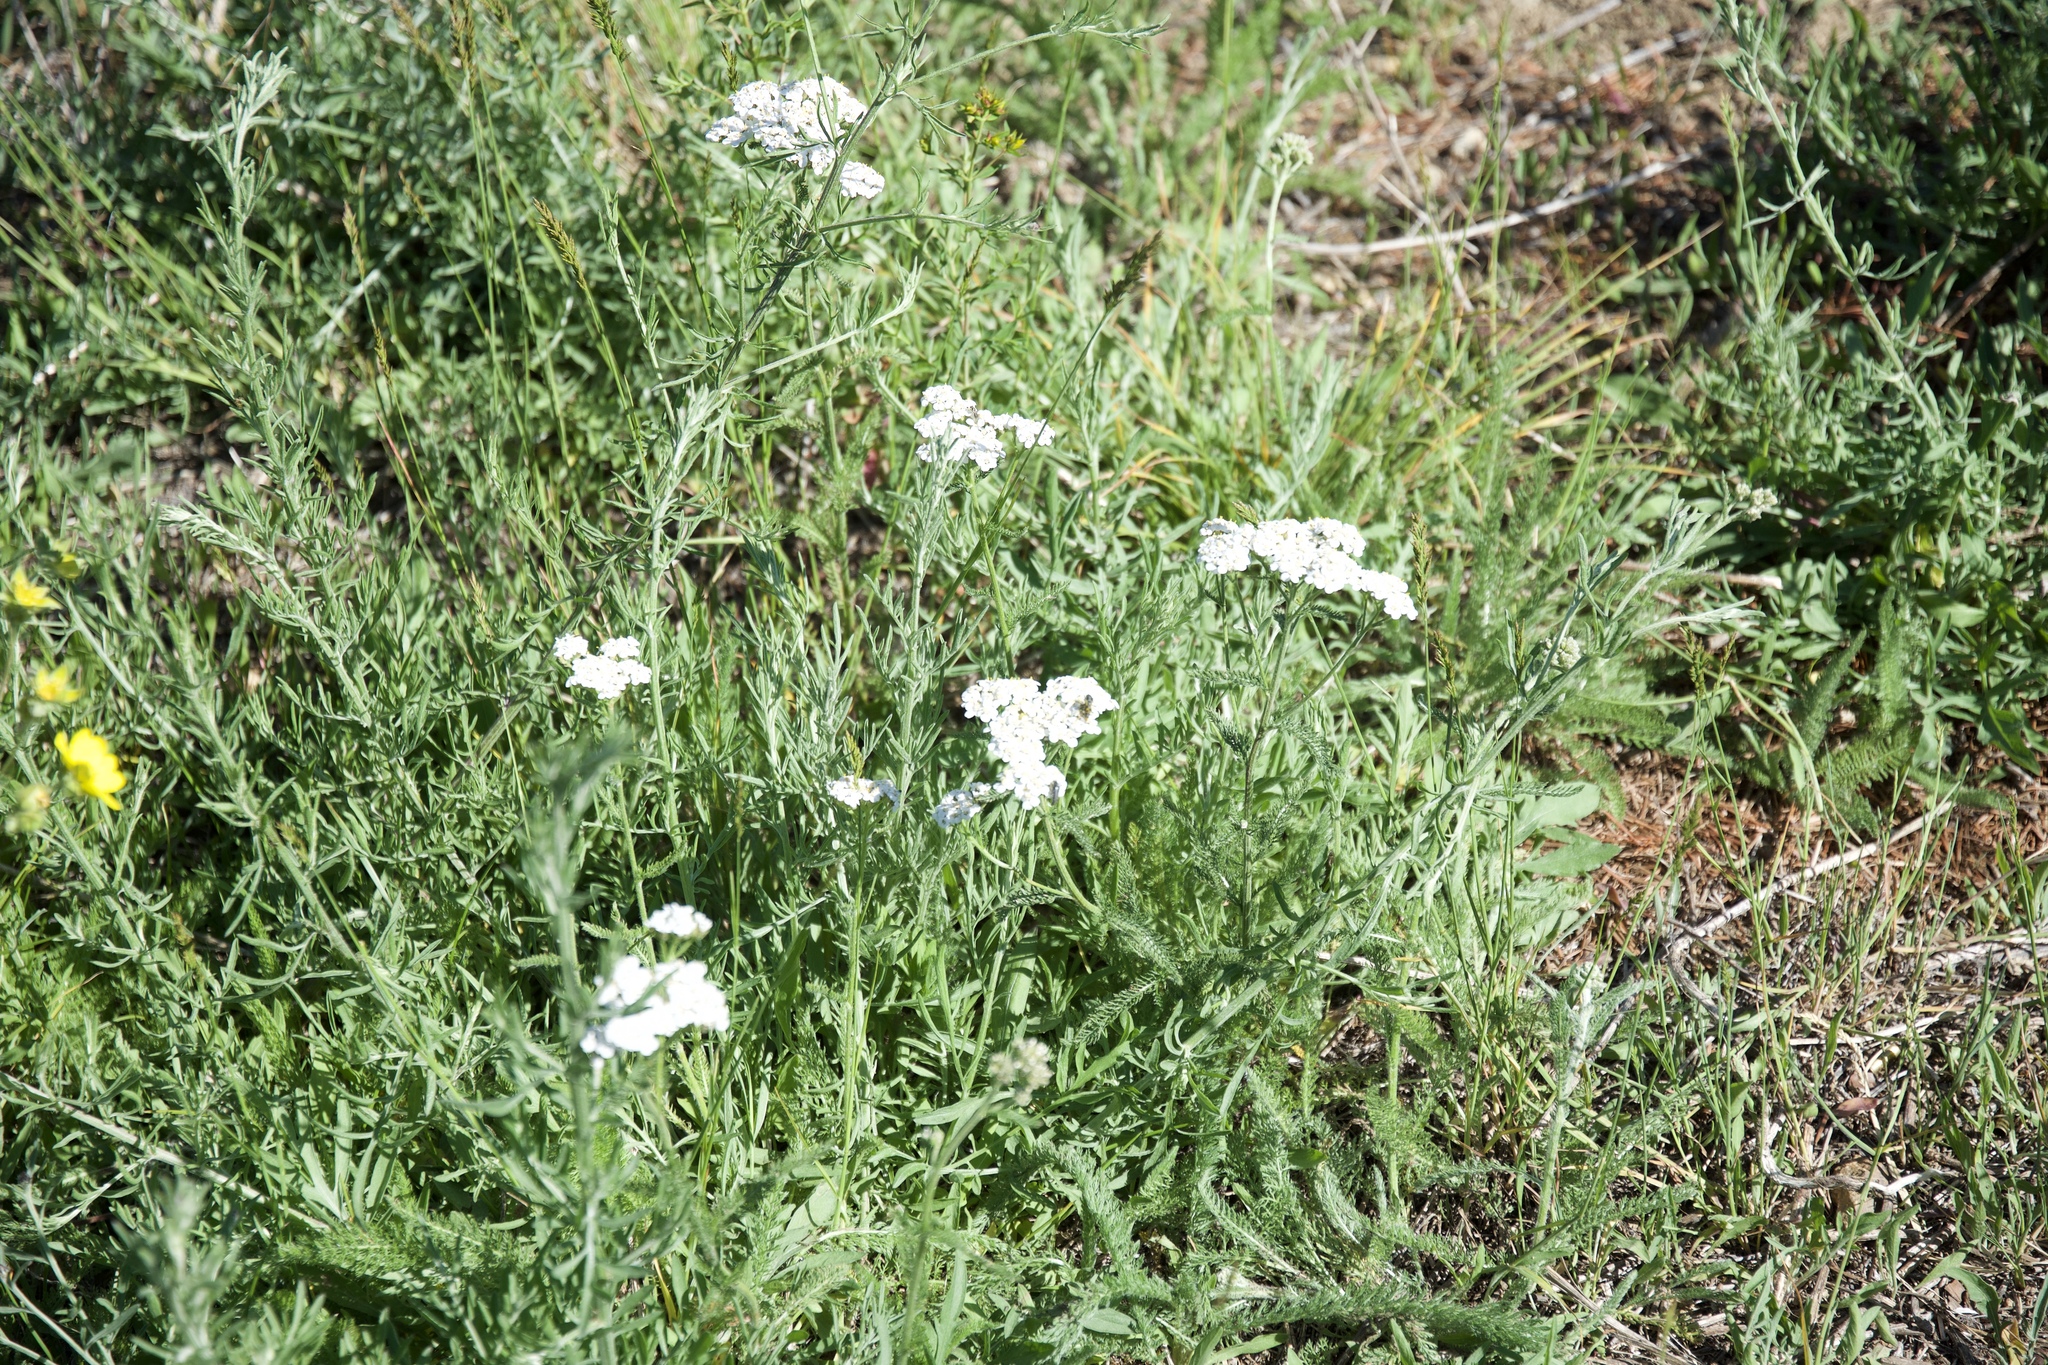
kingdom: Plantae
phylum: Tracheophyta
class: Magnoliopsida
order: Asterales
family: Asteraceae
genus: Achillea
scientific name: Achillea millefolium
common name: Yarrow
